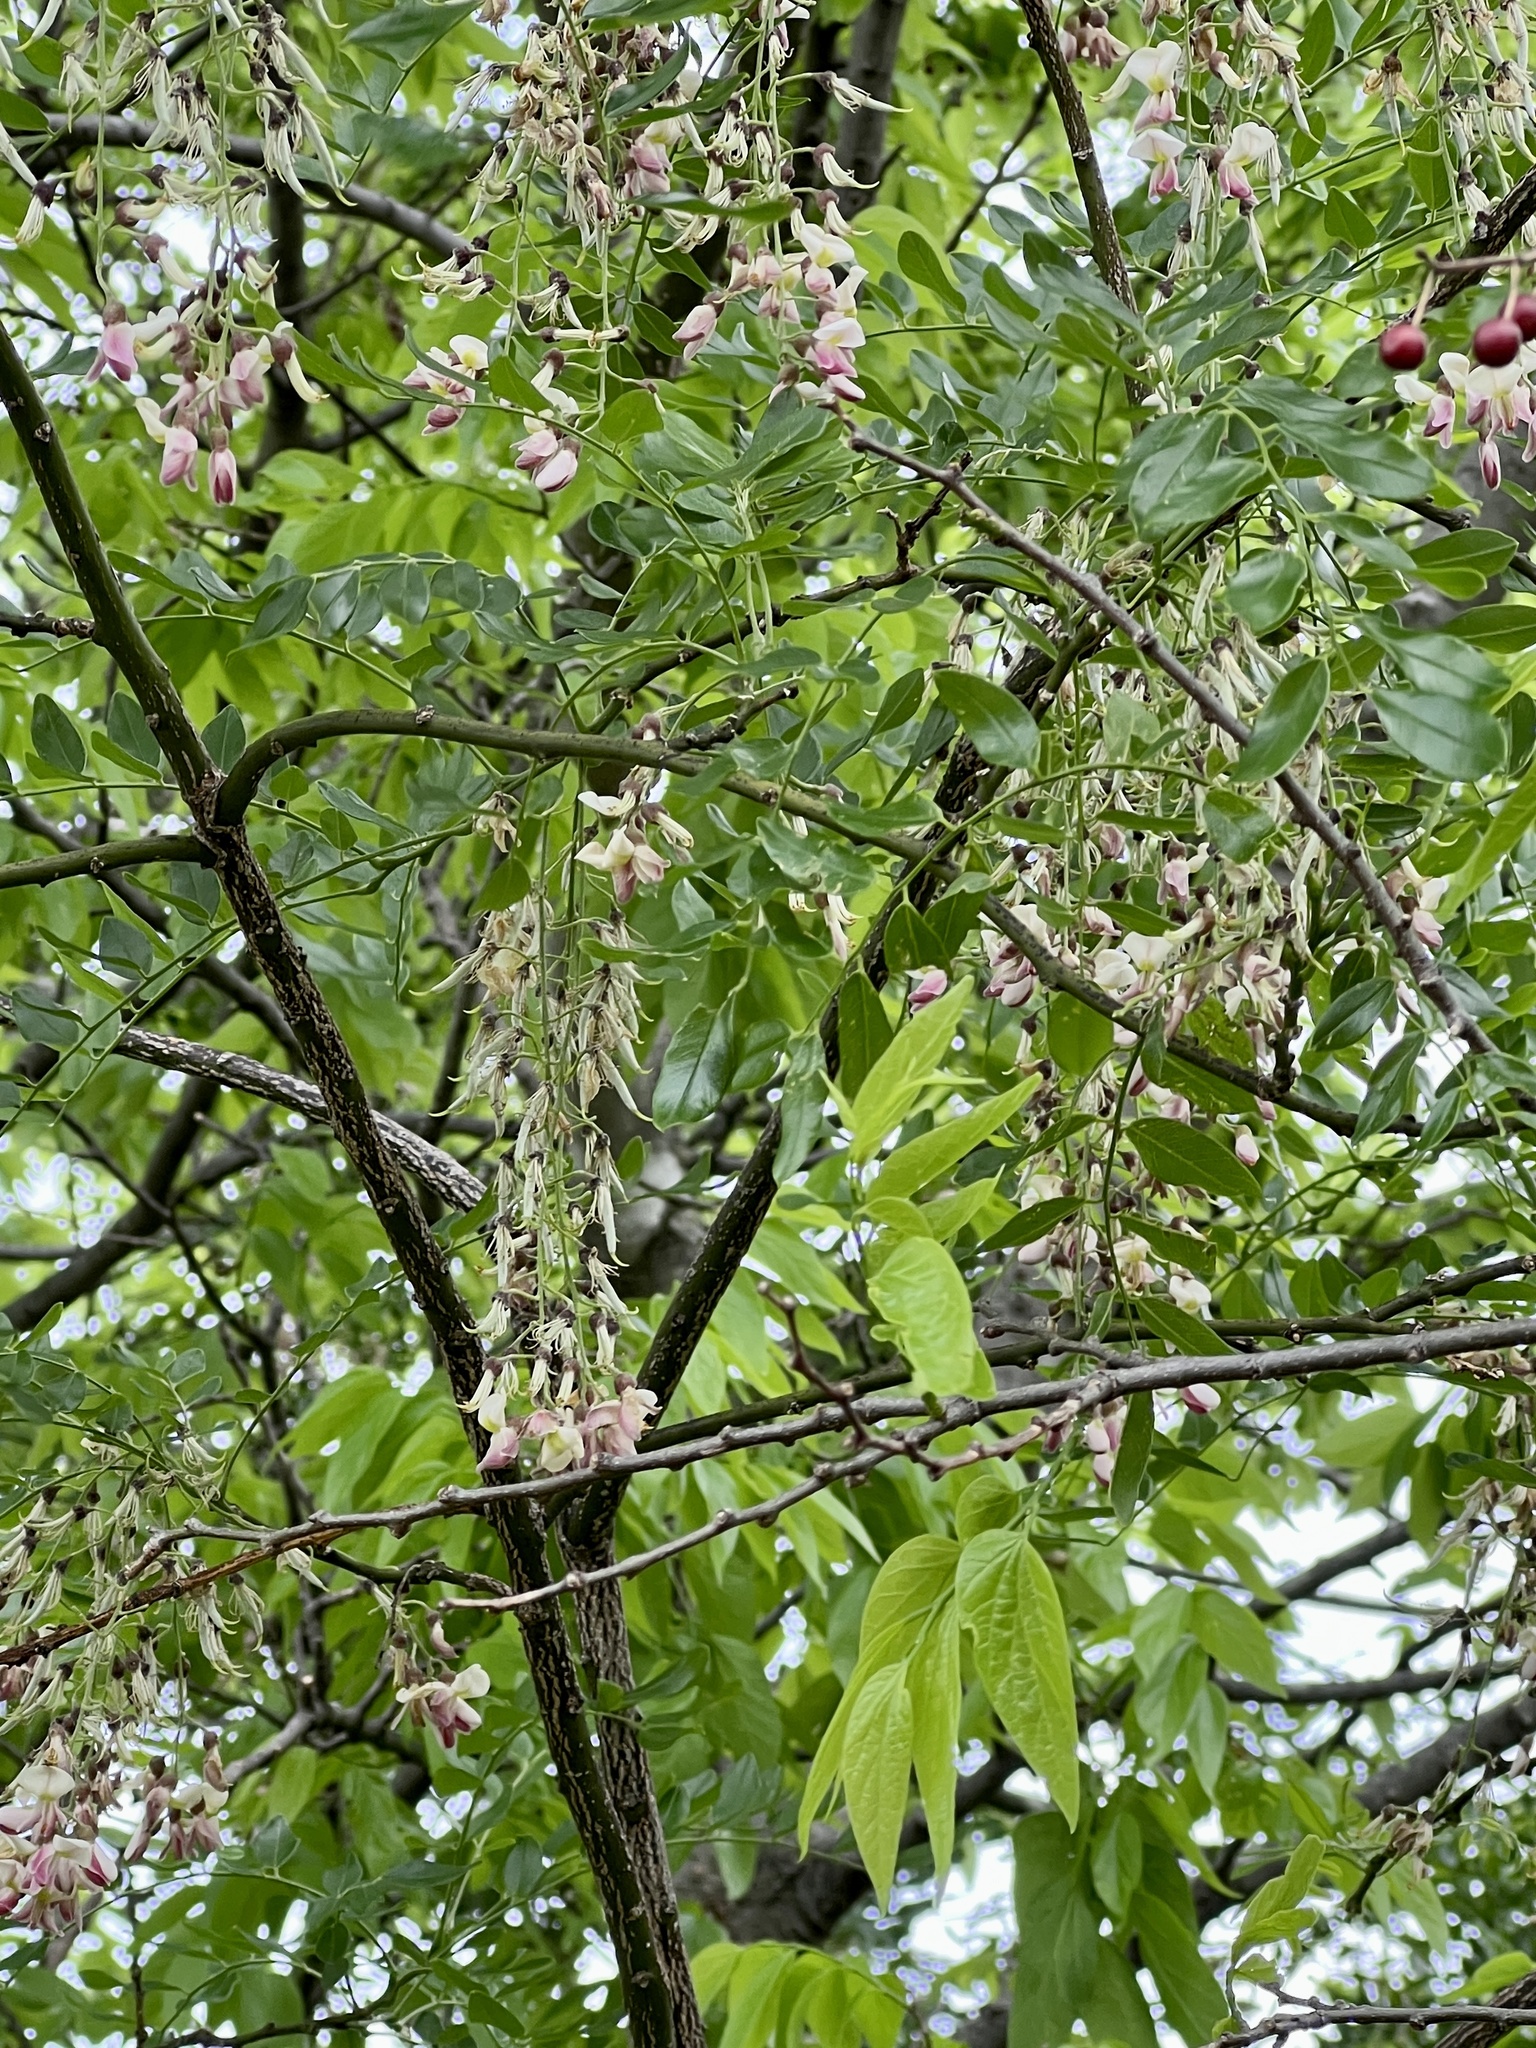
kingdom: Plantae
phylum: Tracheophyta
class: Magnoliopsida
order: Fabales
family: Fabaceae
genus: Styphnolobium
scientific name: Styphnolobium affine
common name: Texas sophora
